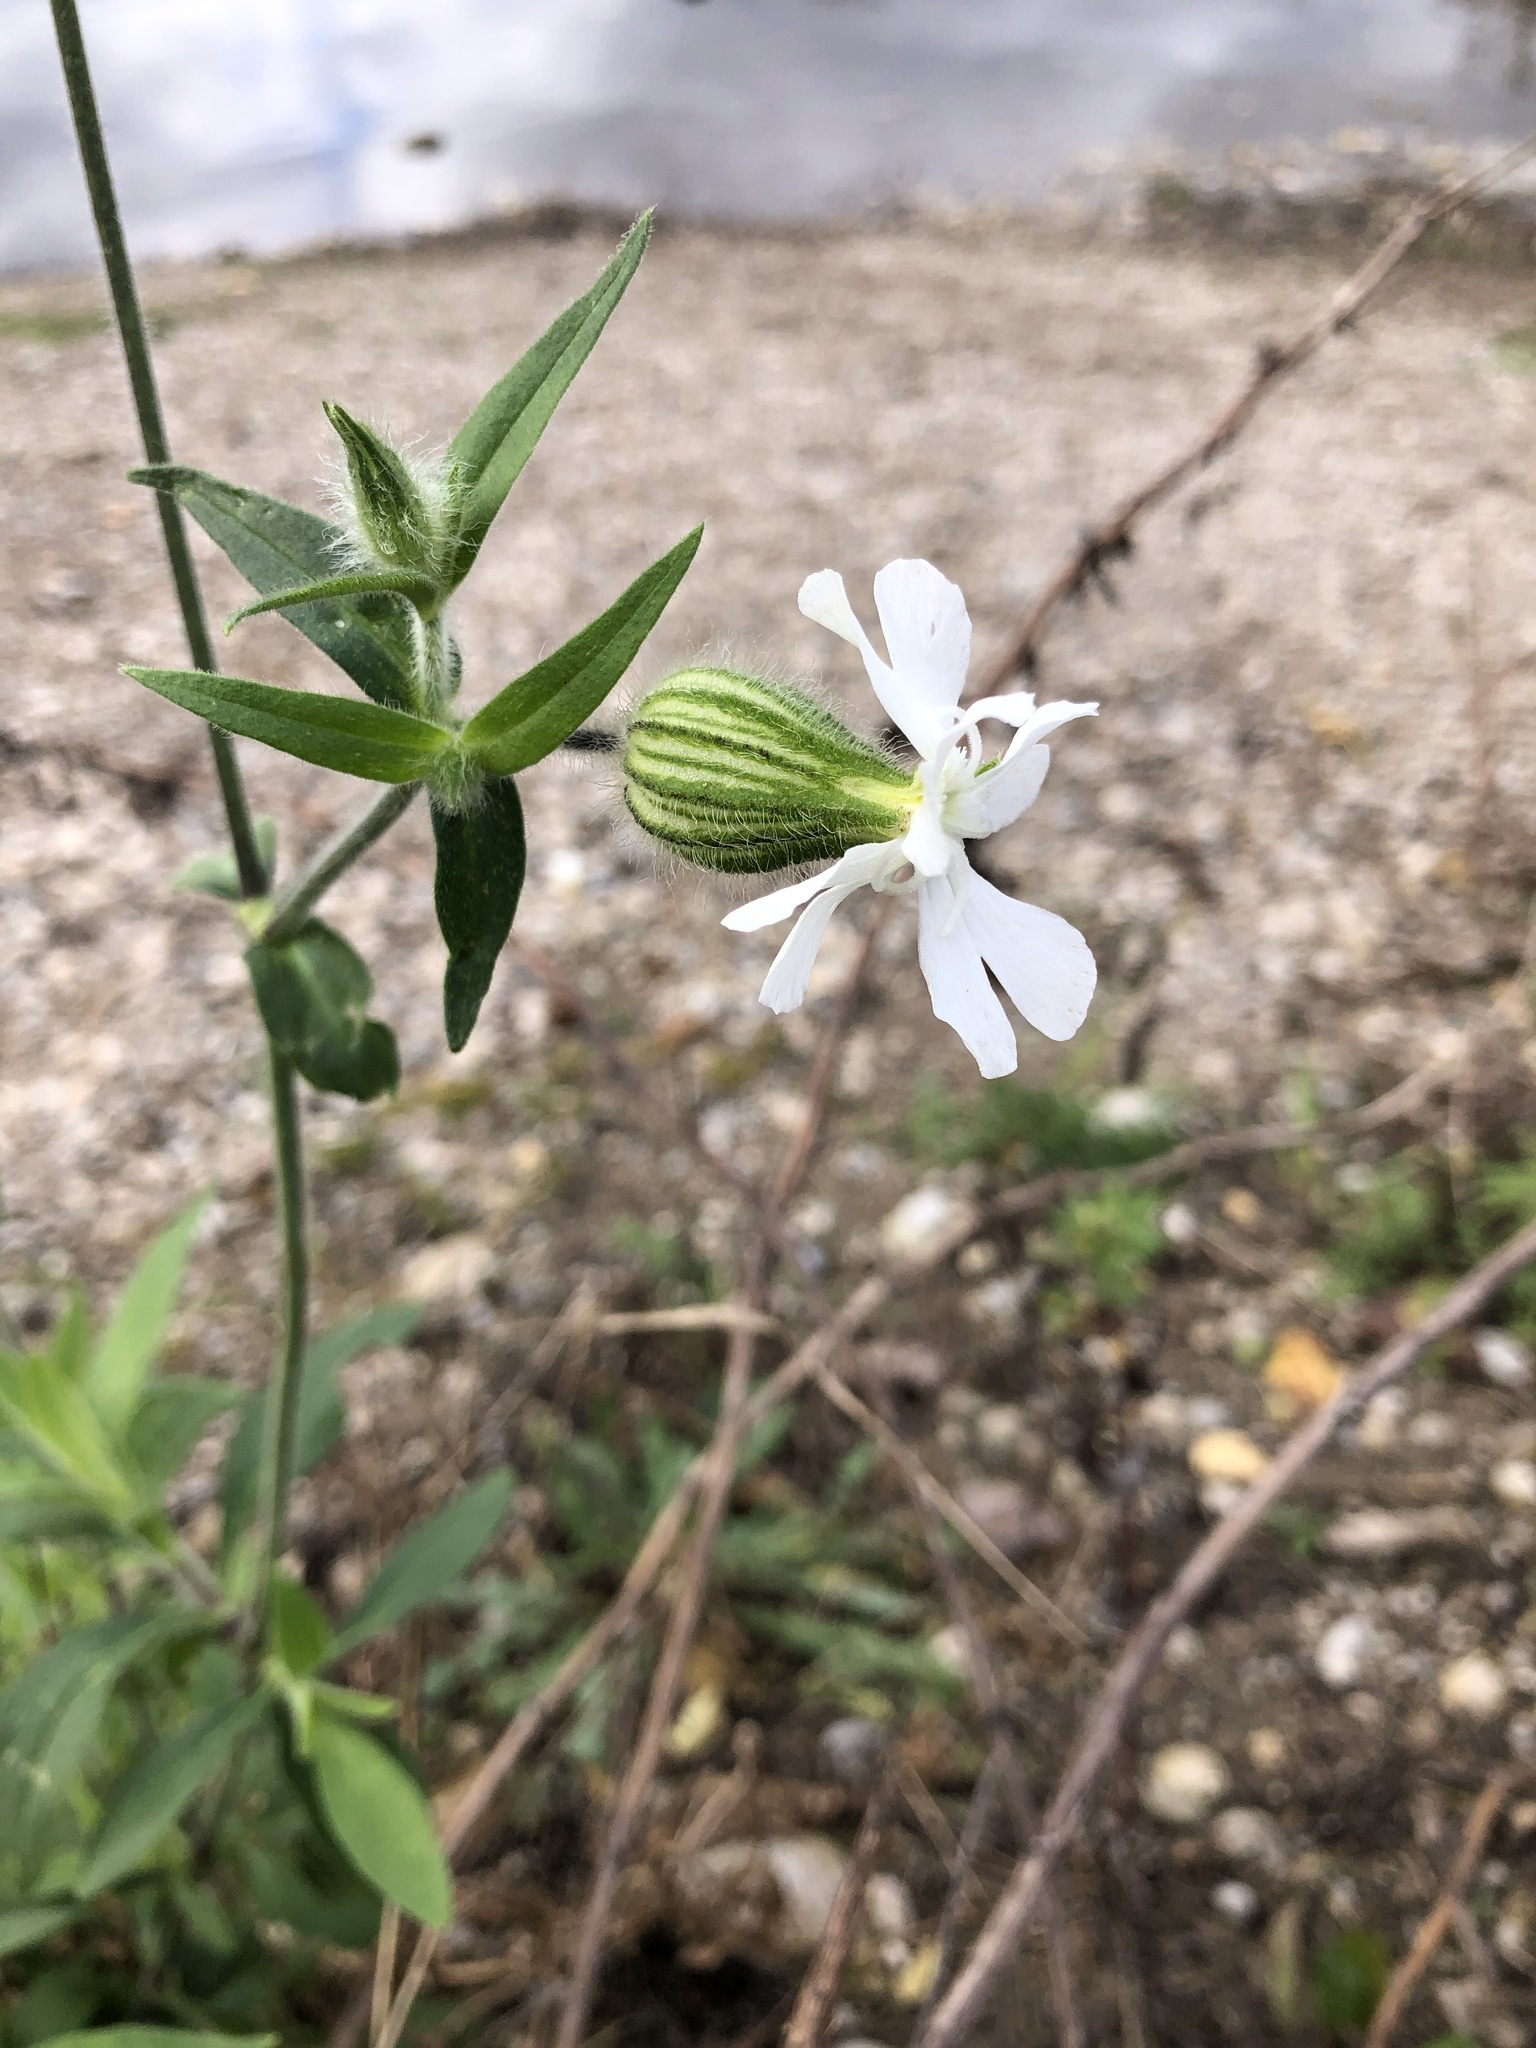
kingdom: Plantae
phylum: Tracheophyta
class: Magnoliopsida
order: Caryophyllales
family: Caryophyllaceae
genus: Silene
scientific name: Silene latifolia
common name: White campion
